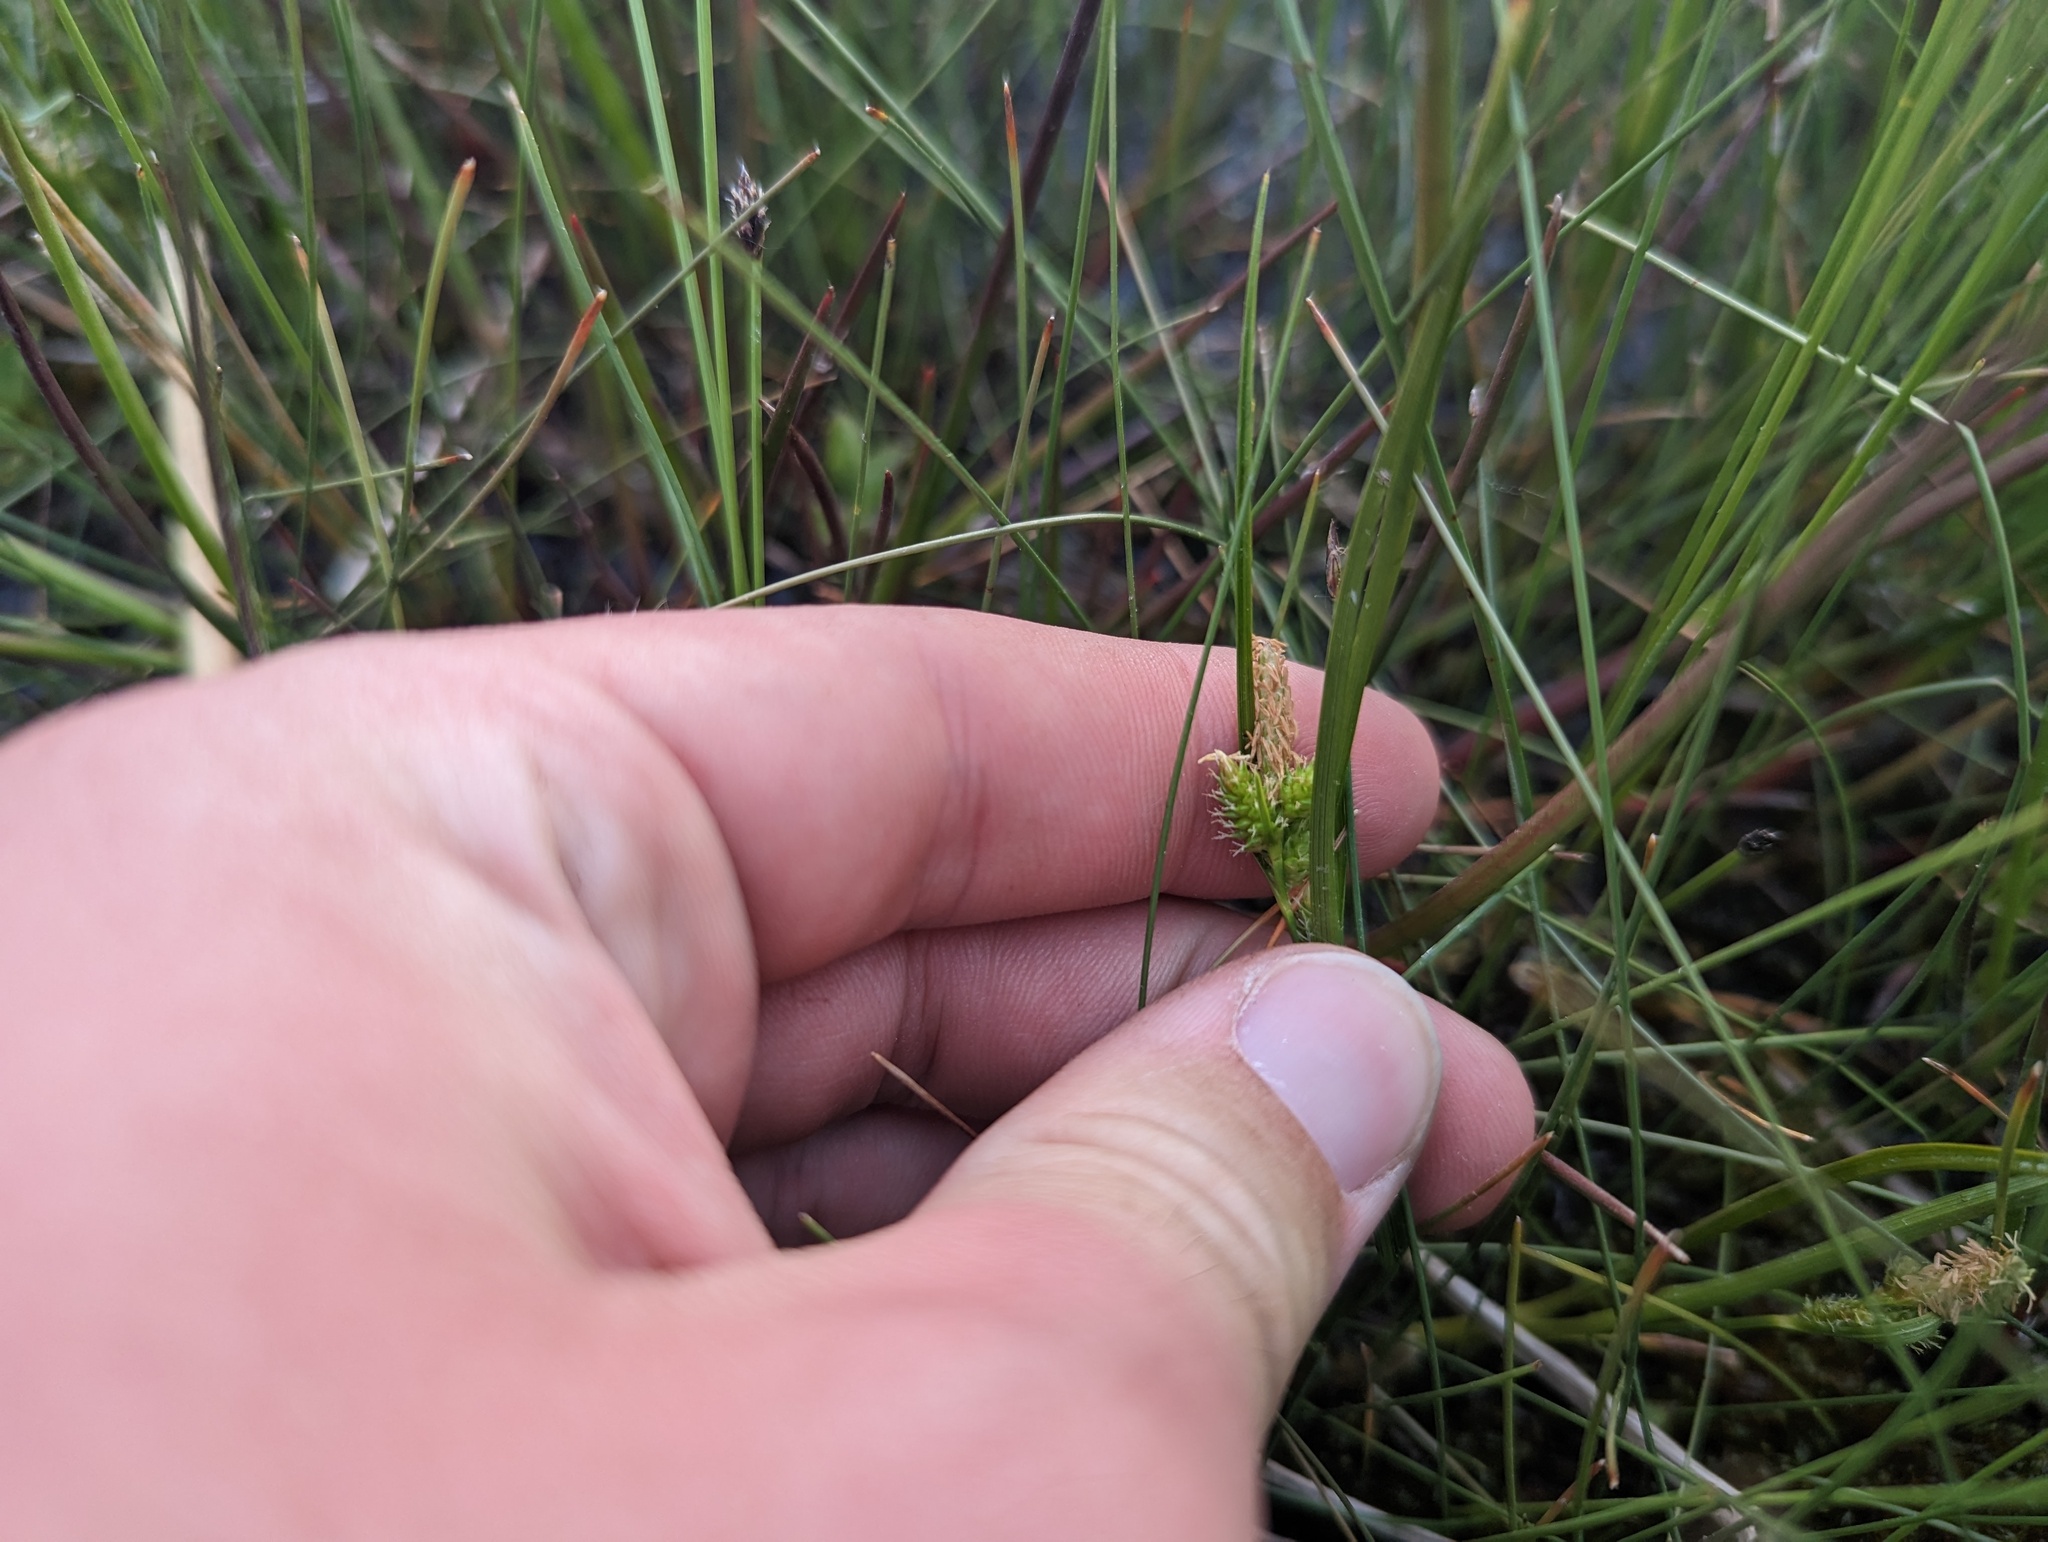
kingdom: Plantae
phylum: Tracheophyta
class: Liliopsida
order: Poales
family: Cyperaceae
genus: Carex
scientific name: Carex
